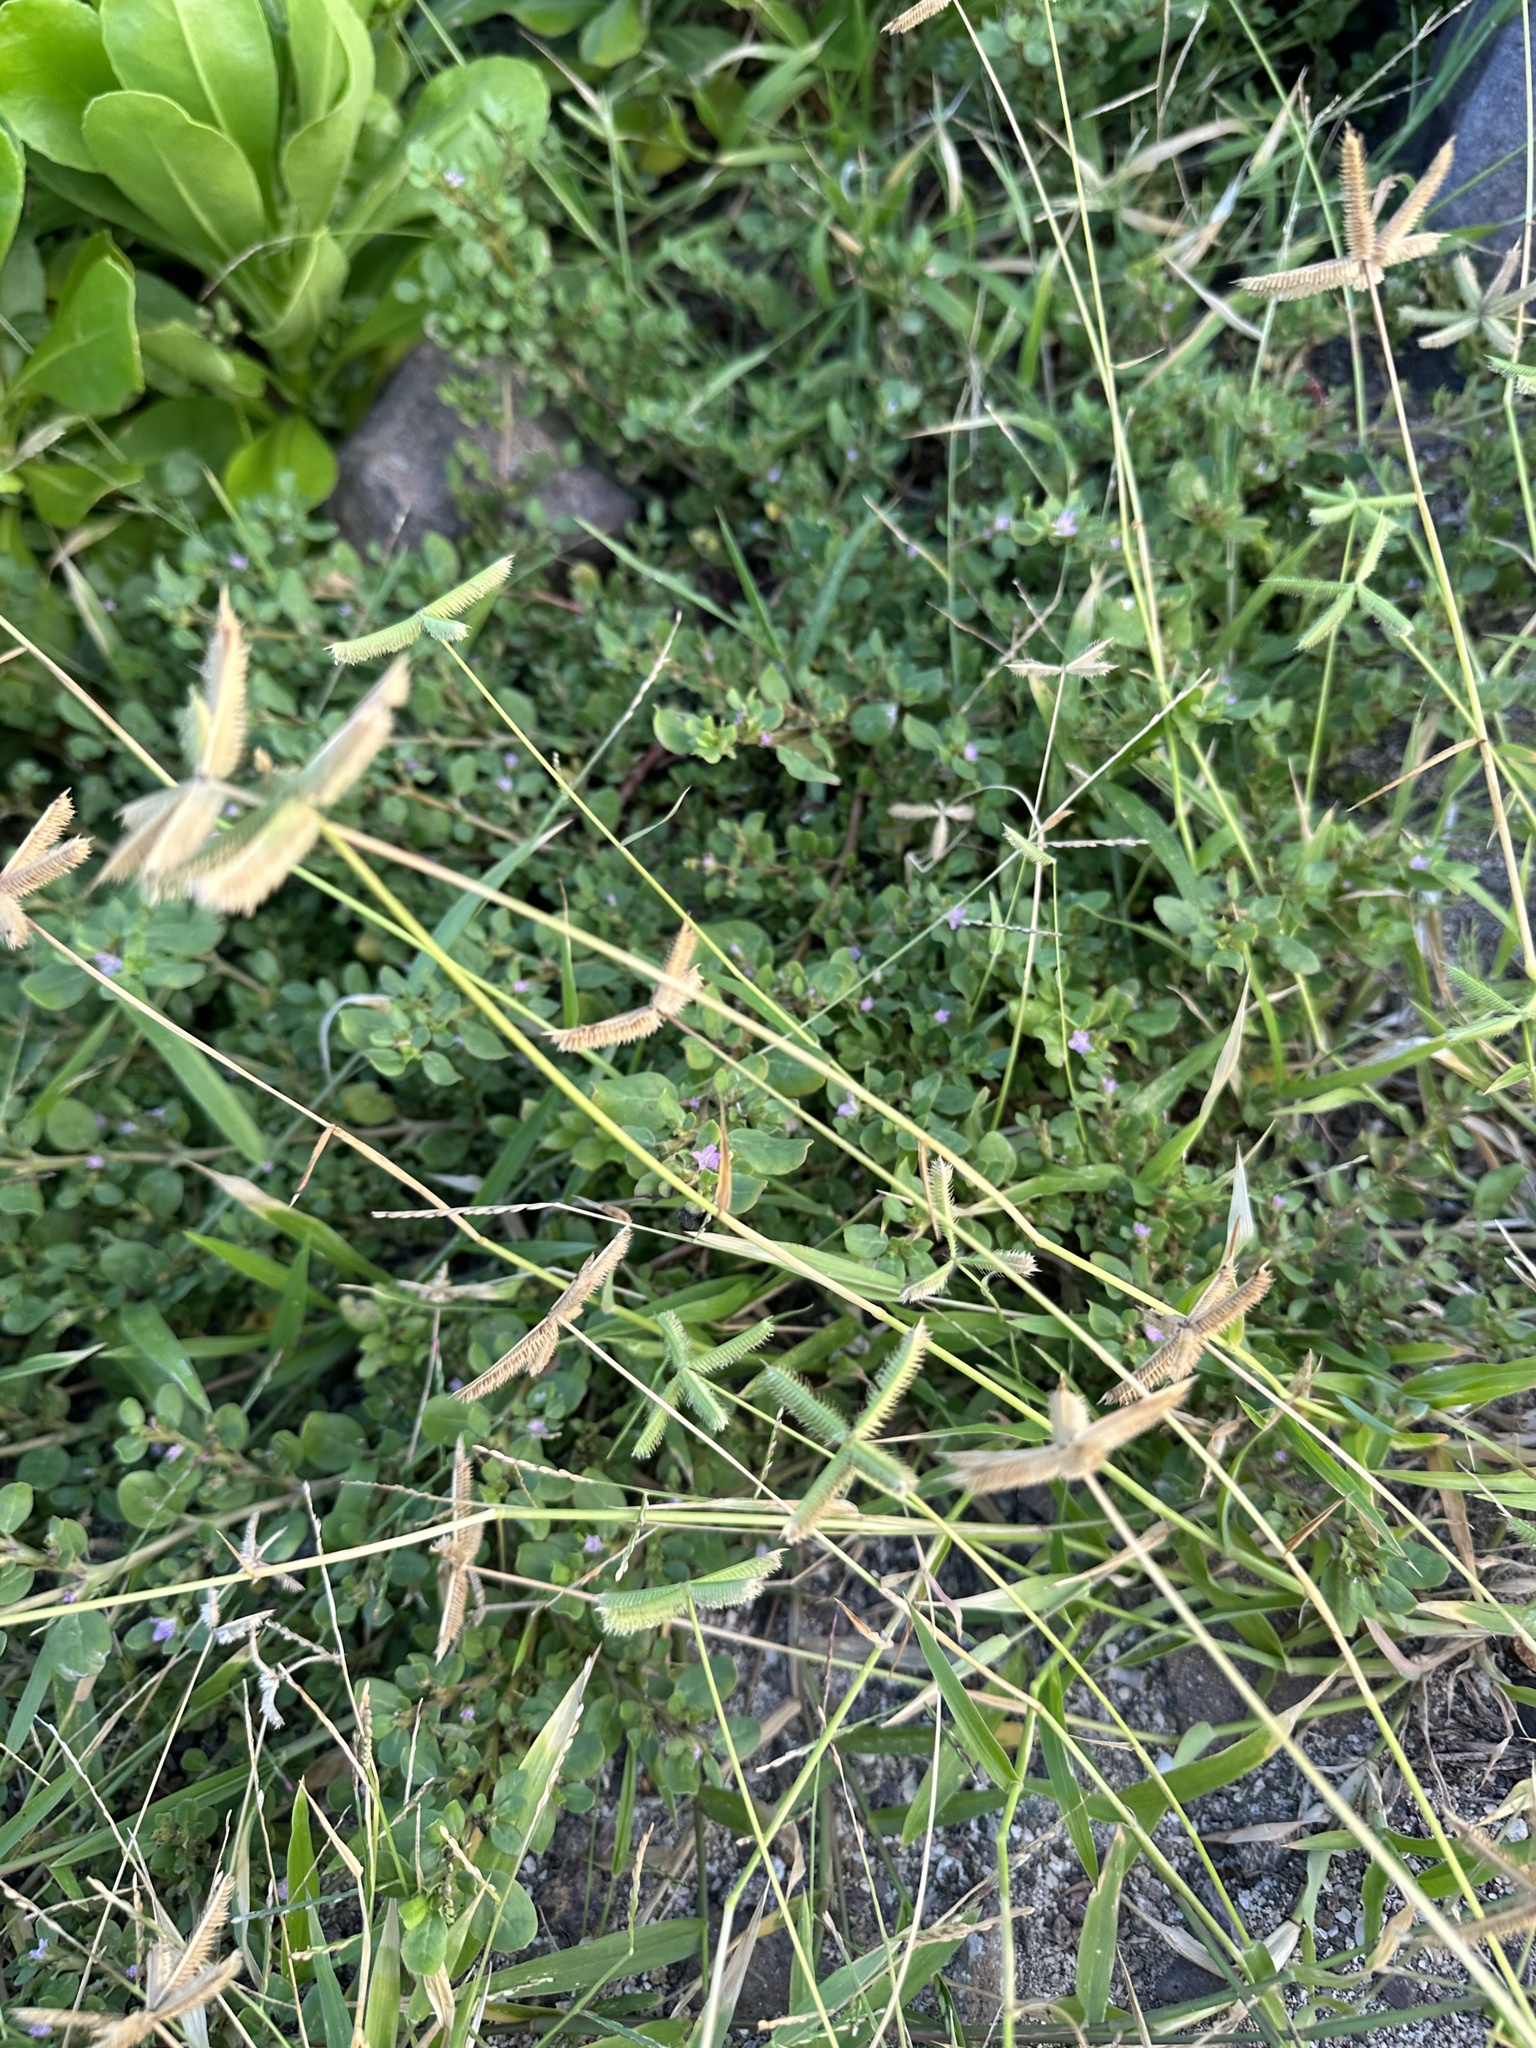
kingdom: Plantae
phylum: Tracheophyta
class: Liliopsida
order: Poales
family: Poaceae
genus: Dactyloctenium
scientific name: Dactyloctenium aegyptium
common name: Egyptian grass
